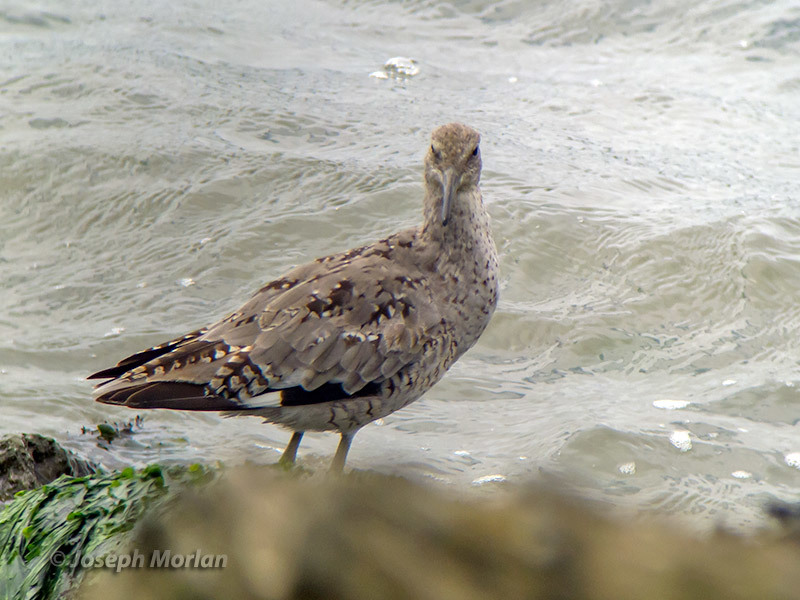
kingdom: Animalia
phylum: Chordata
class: Aves
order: Charadriiformes
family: Scolopacidae
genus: Tringa
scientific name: Tringa semipalmata
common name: Willet
